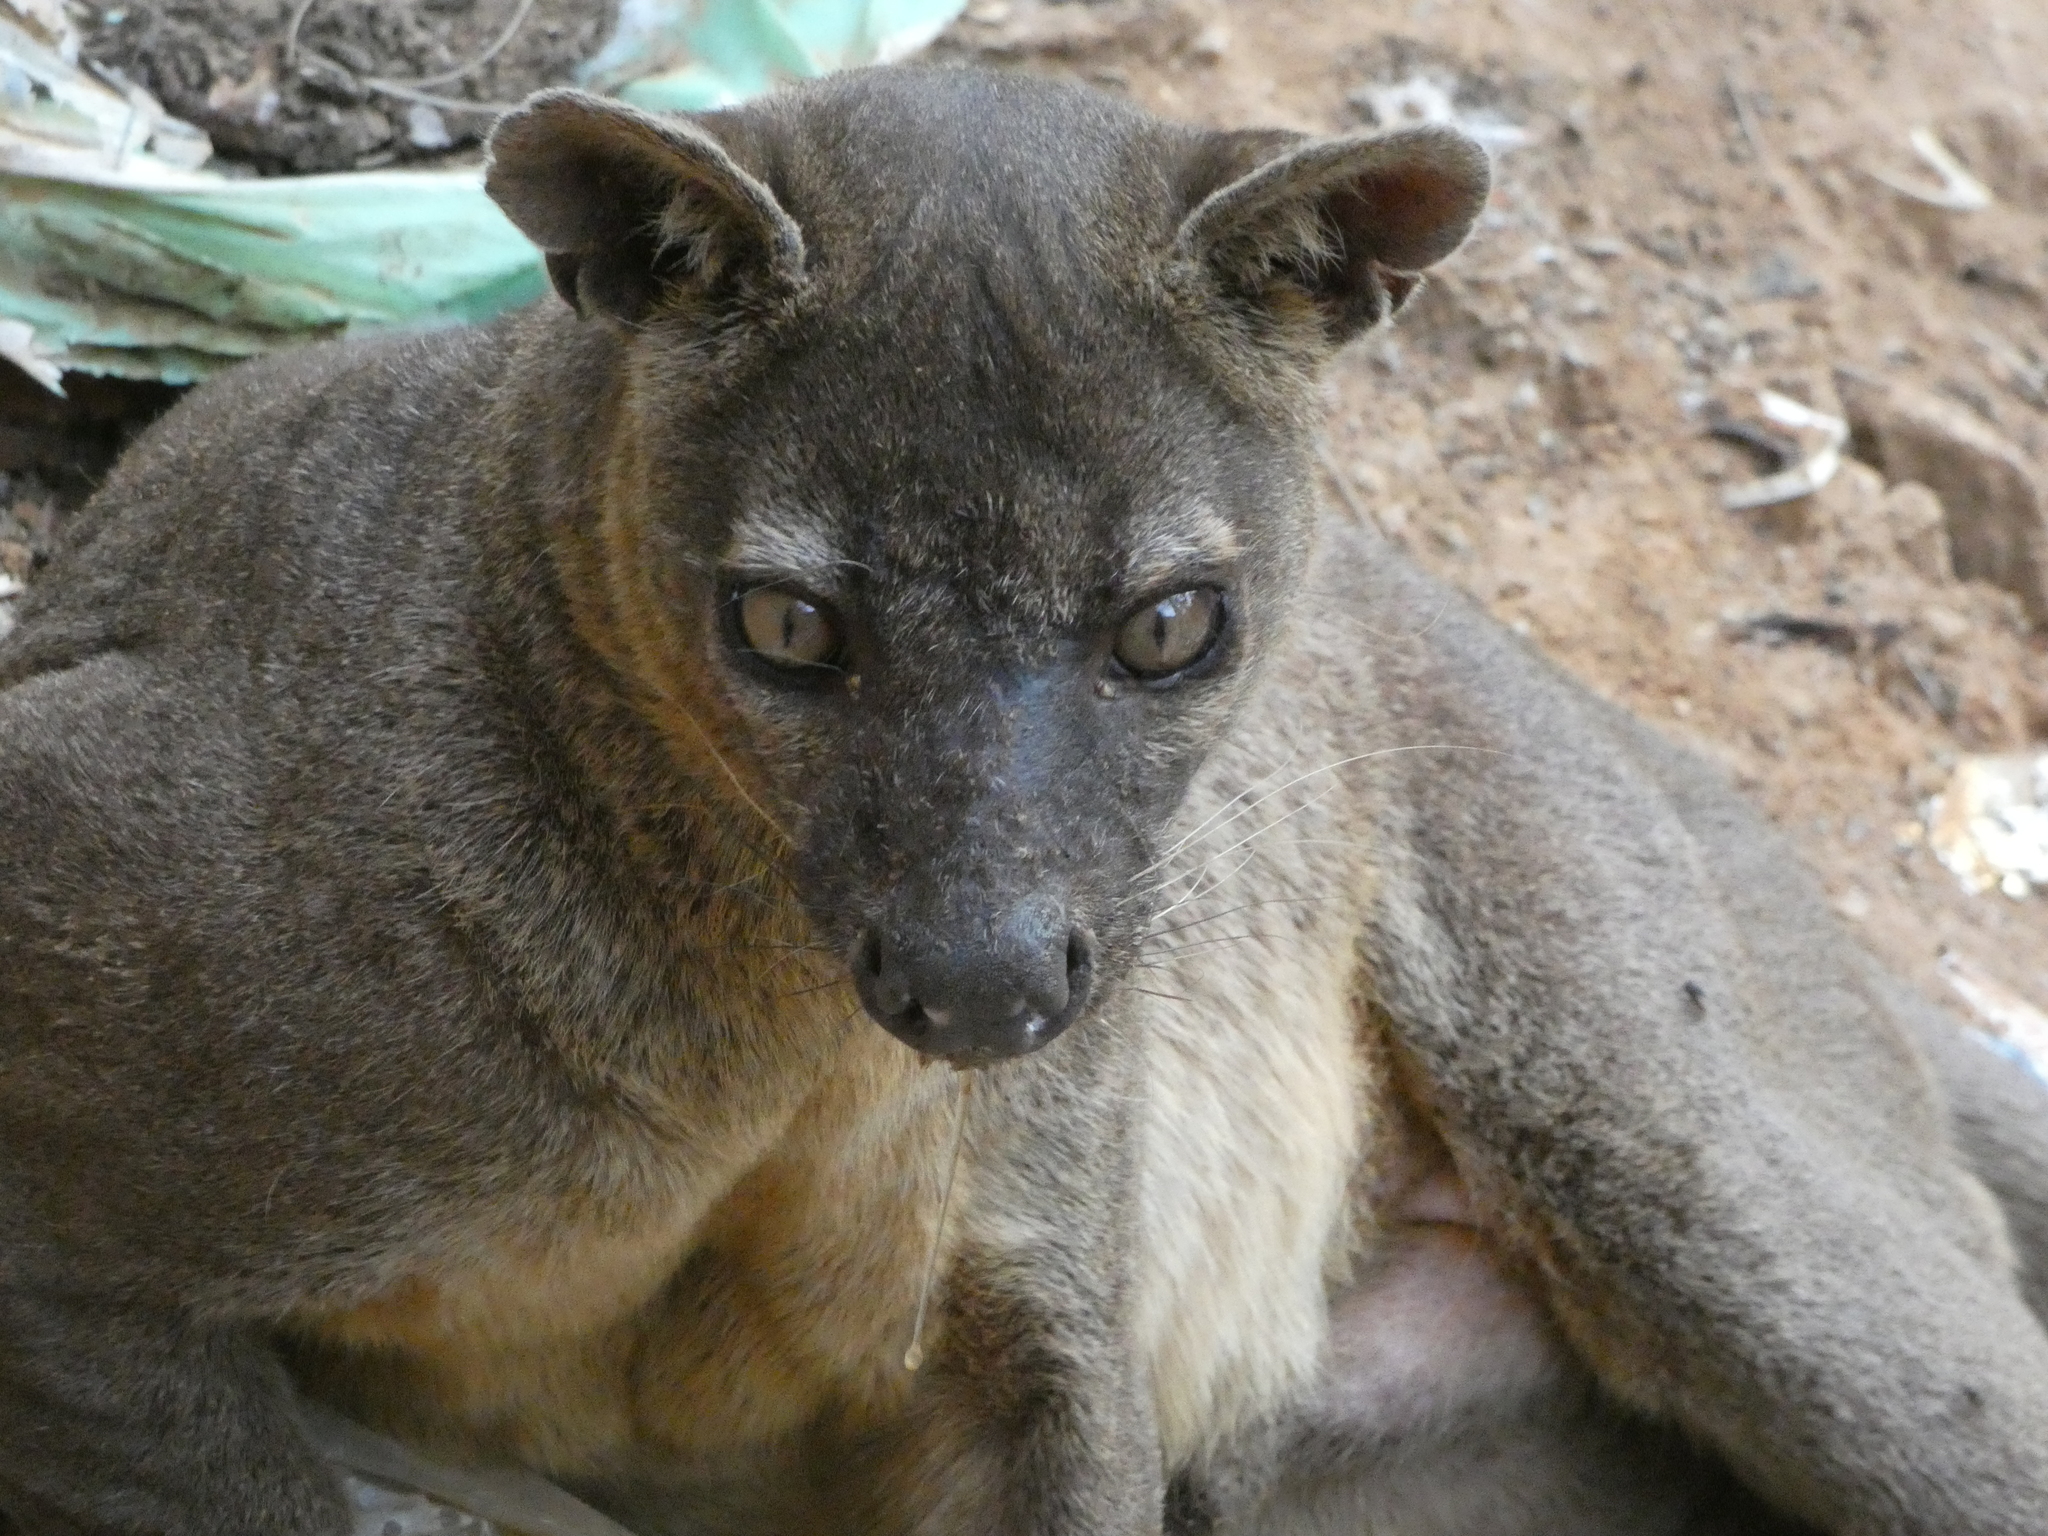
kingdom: Animalia
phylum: Chordata
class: Mammalia
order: Carnivora
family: Eupleridae
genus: Cryptoprocta
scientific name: Cryptoprocta ferox
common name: Fossa
